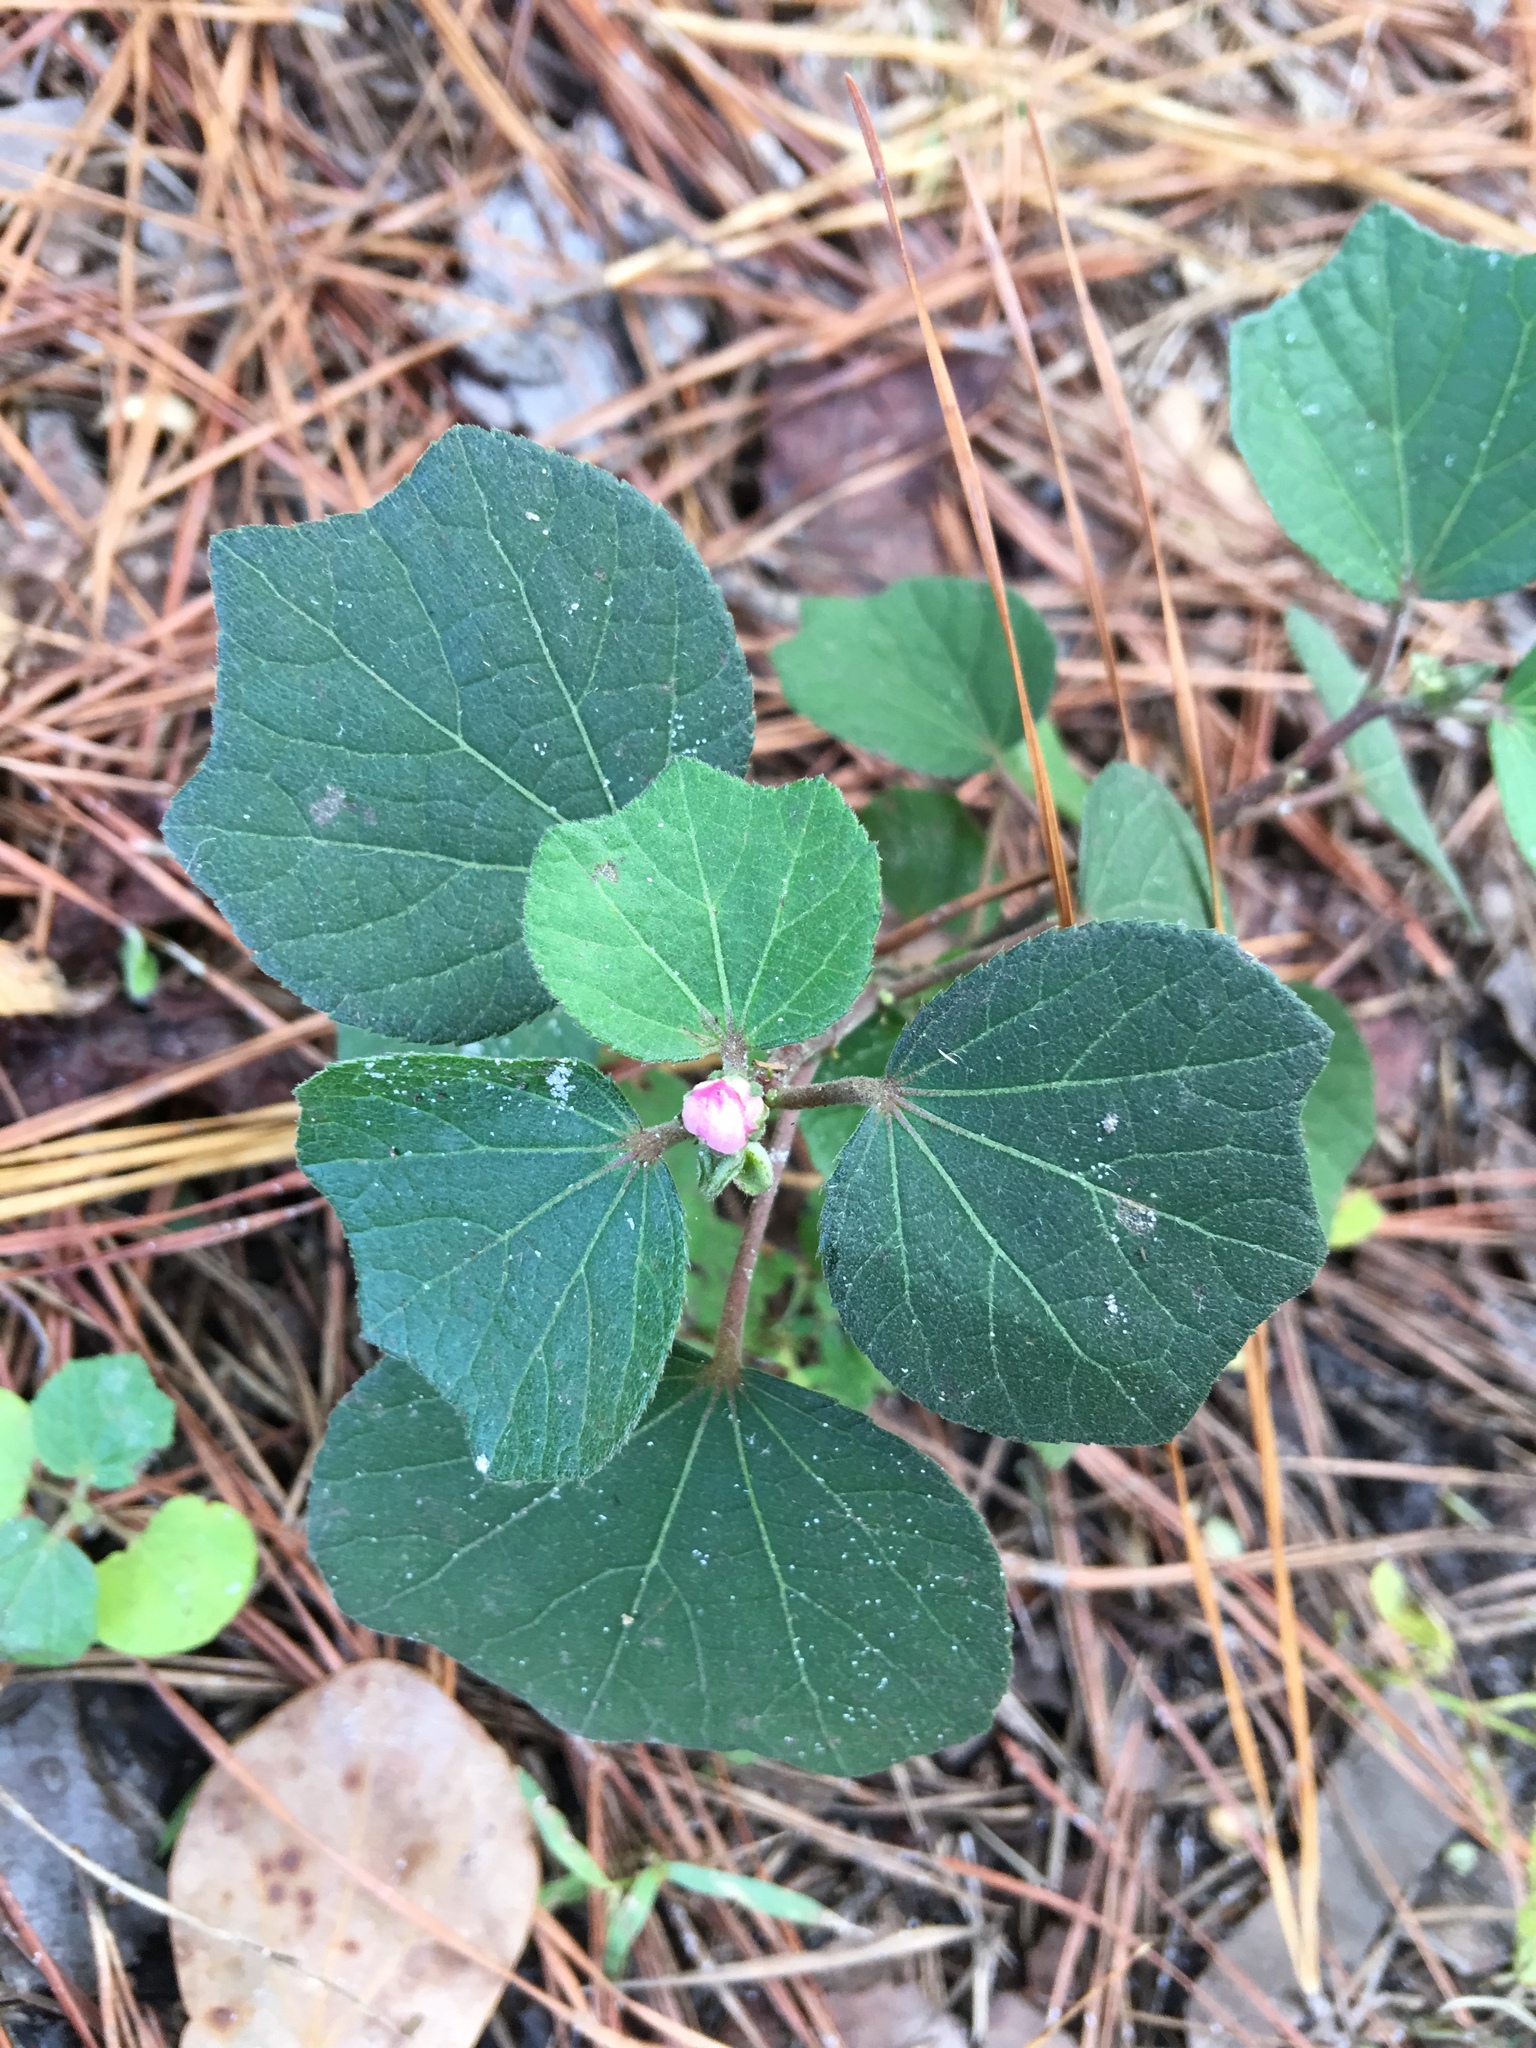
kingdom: Plantae
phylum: Tracheophyta
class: Magnoliopsida
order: Malvales
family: Malvaceae
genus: Urena
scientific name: Urena lobata
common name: Caesarweed
